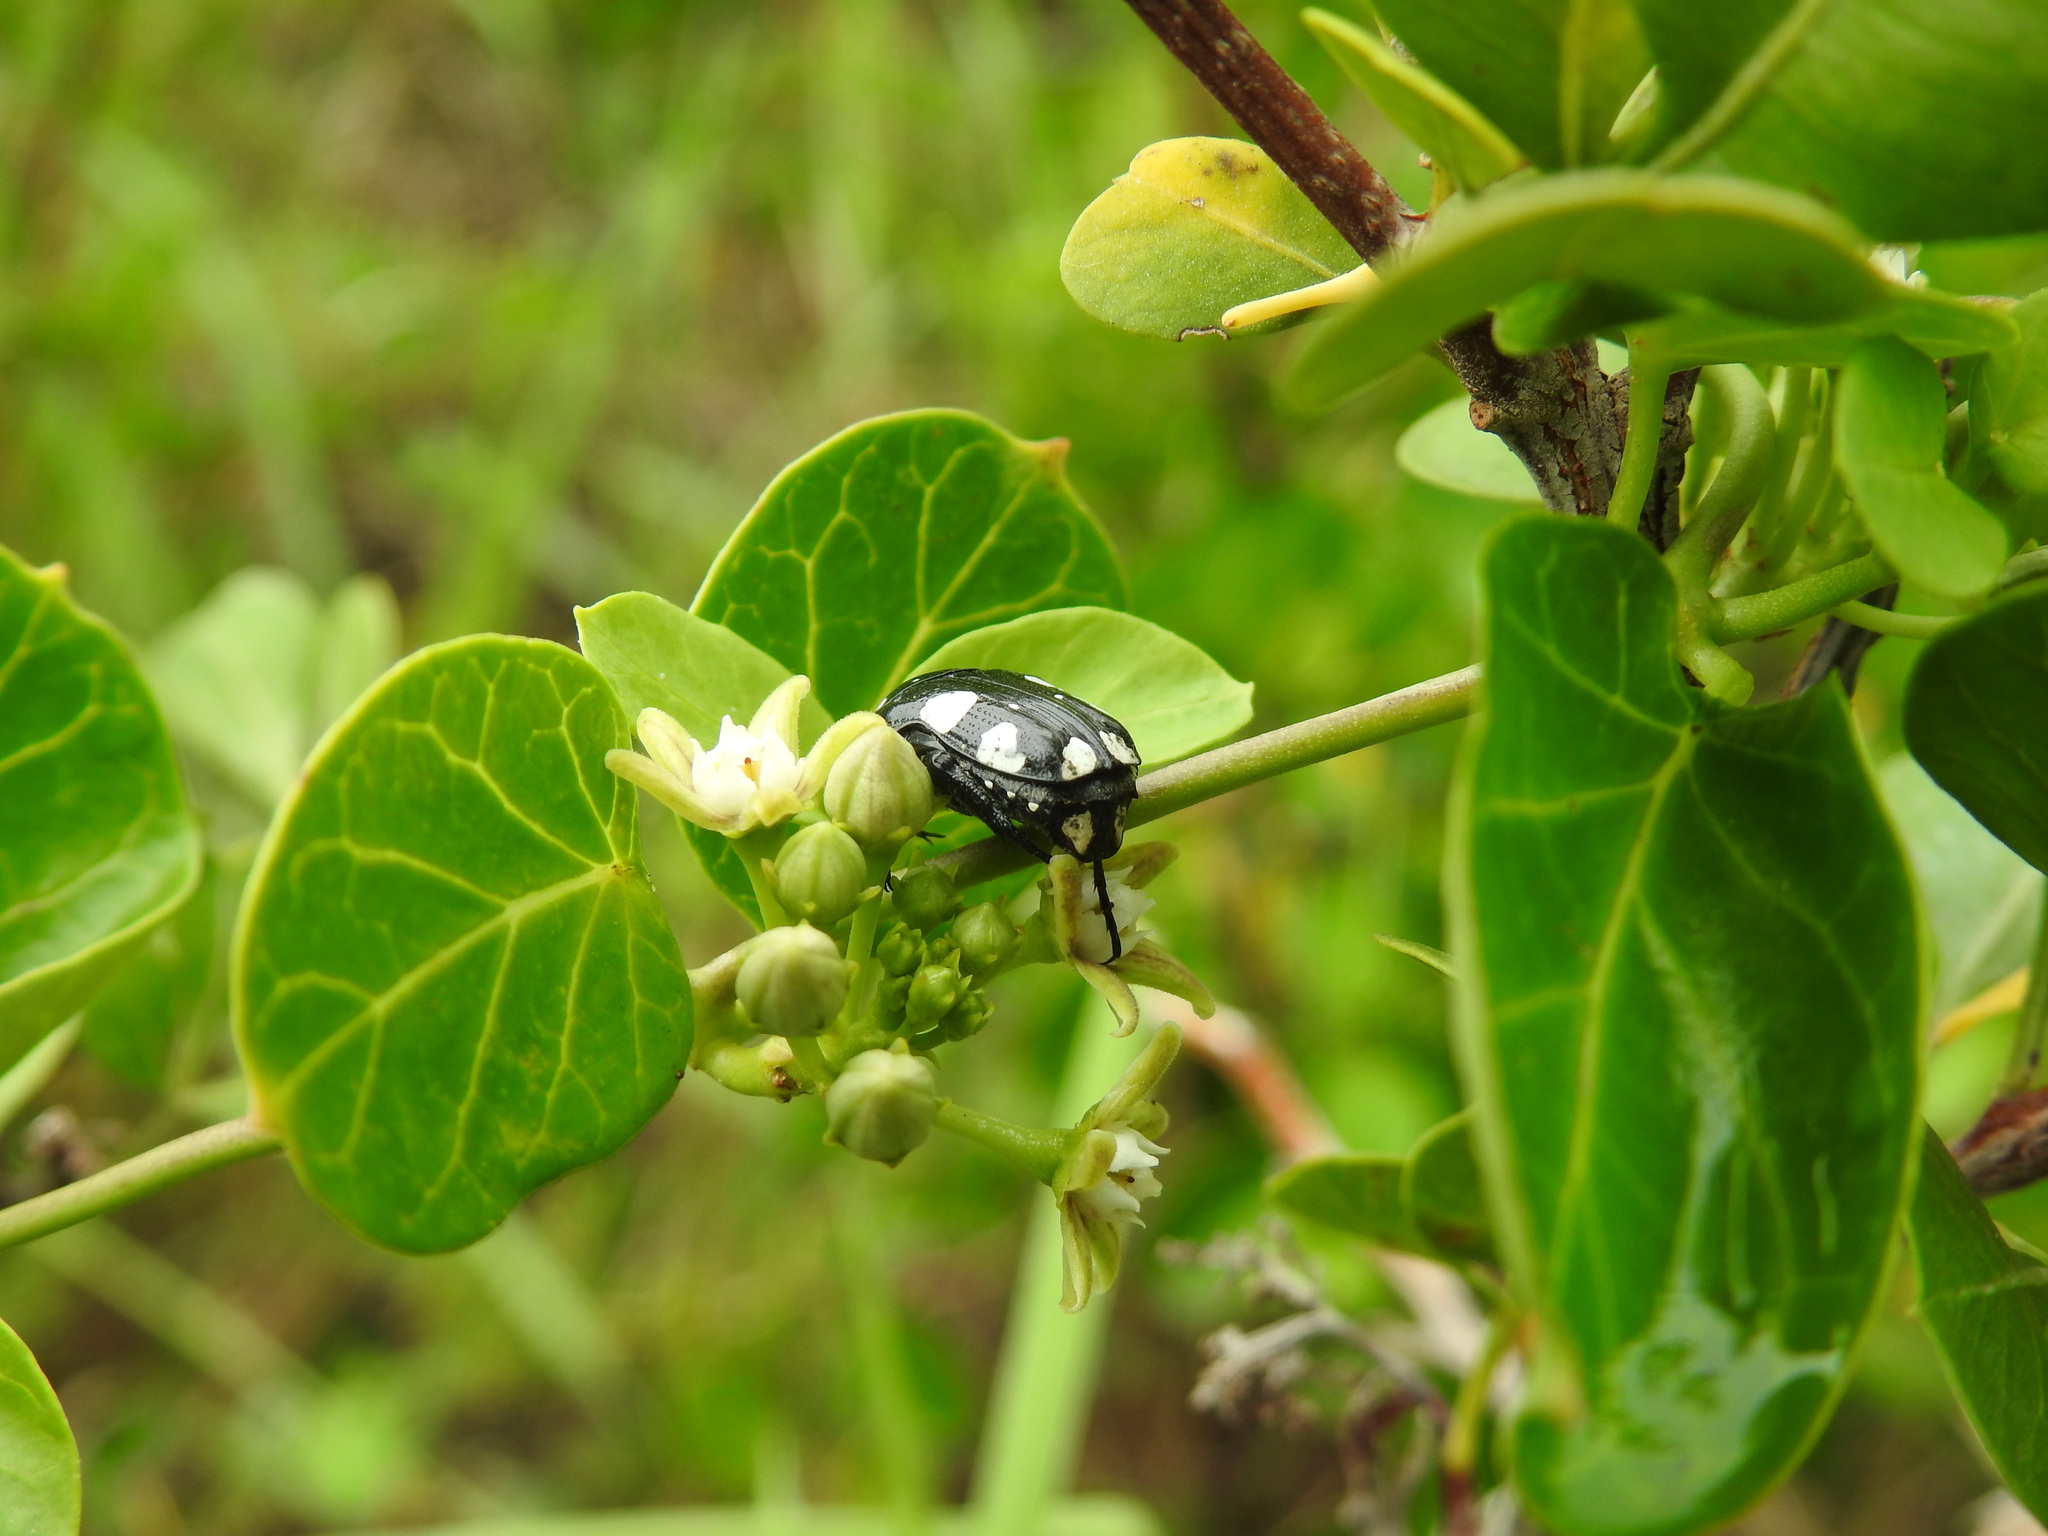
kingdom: Animalia
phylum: Arthropoda
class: Insecta
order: Coleoptera
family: Scarabaeidae
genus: Mausoleopsis
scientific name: Mausoleopsis amabilis
